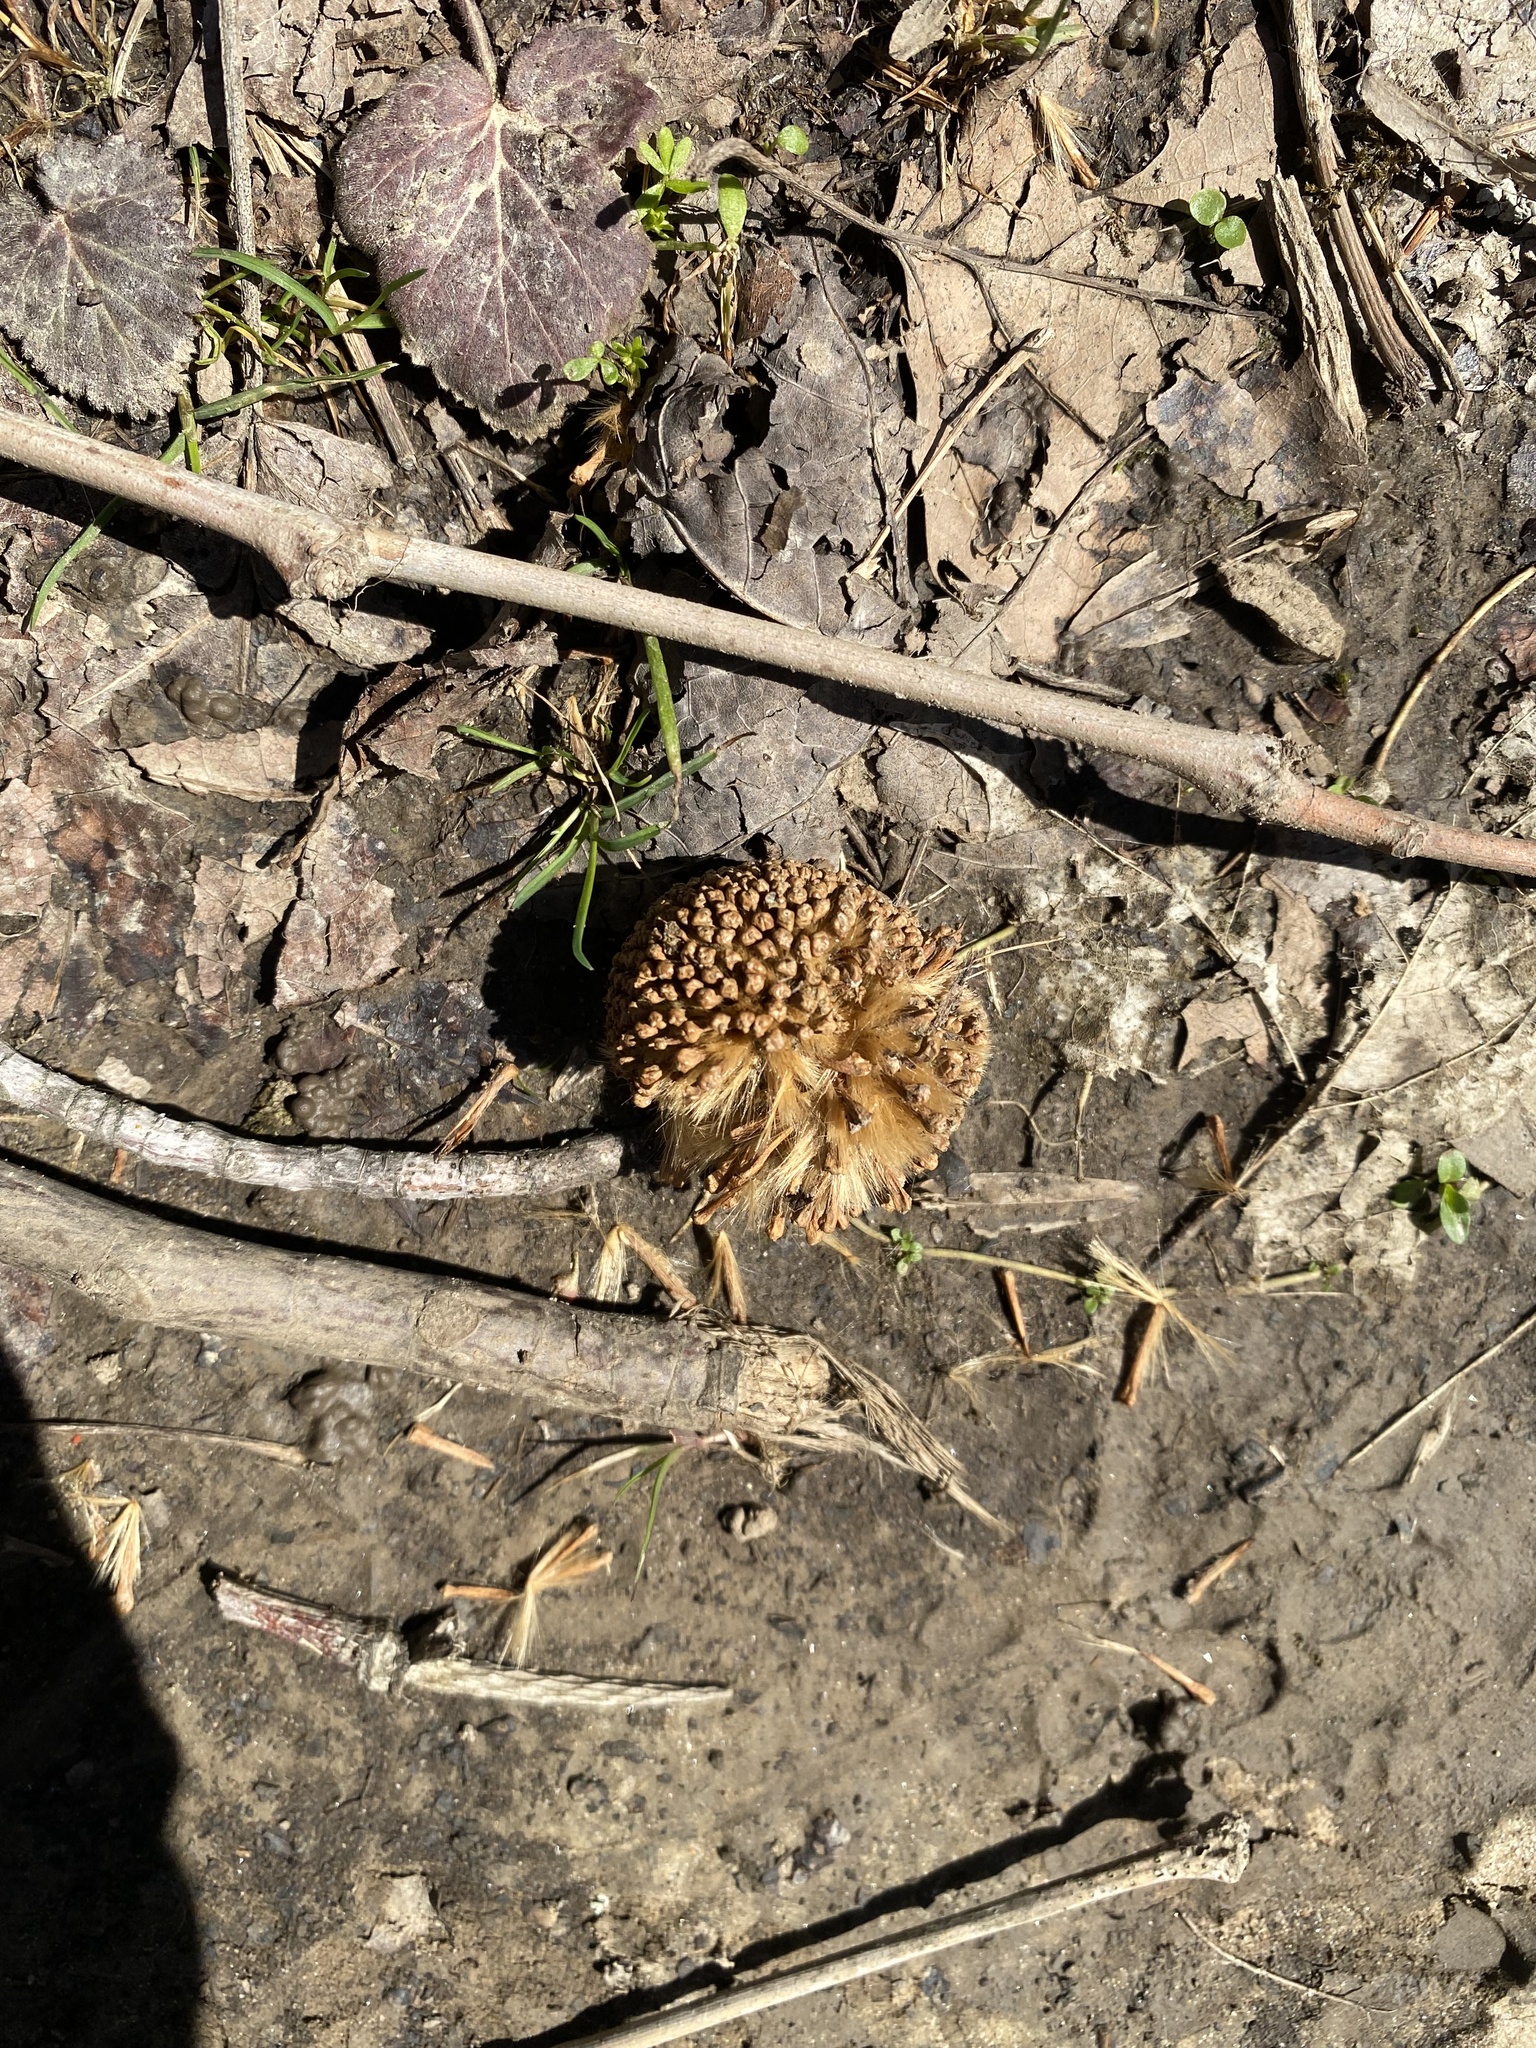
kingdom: Plantae
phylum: Tracheophyta
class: Magnoliopsida
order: Proteales
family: Platanaceae
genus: Platanus
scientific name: Platanus occidentalis
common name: American sycamore
